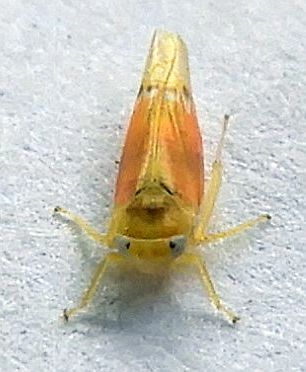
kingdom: Animalia
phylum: Arthropoda
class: Insecta
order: Hemiptera
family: Cicadellidae
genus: Empoa
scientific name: Empoa aureotecta
